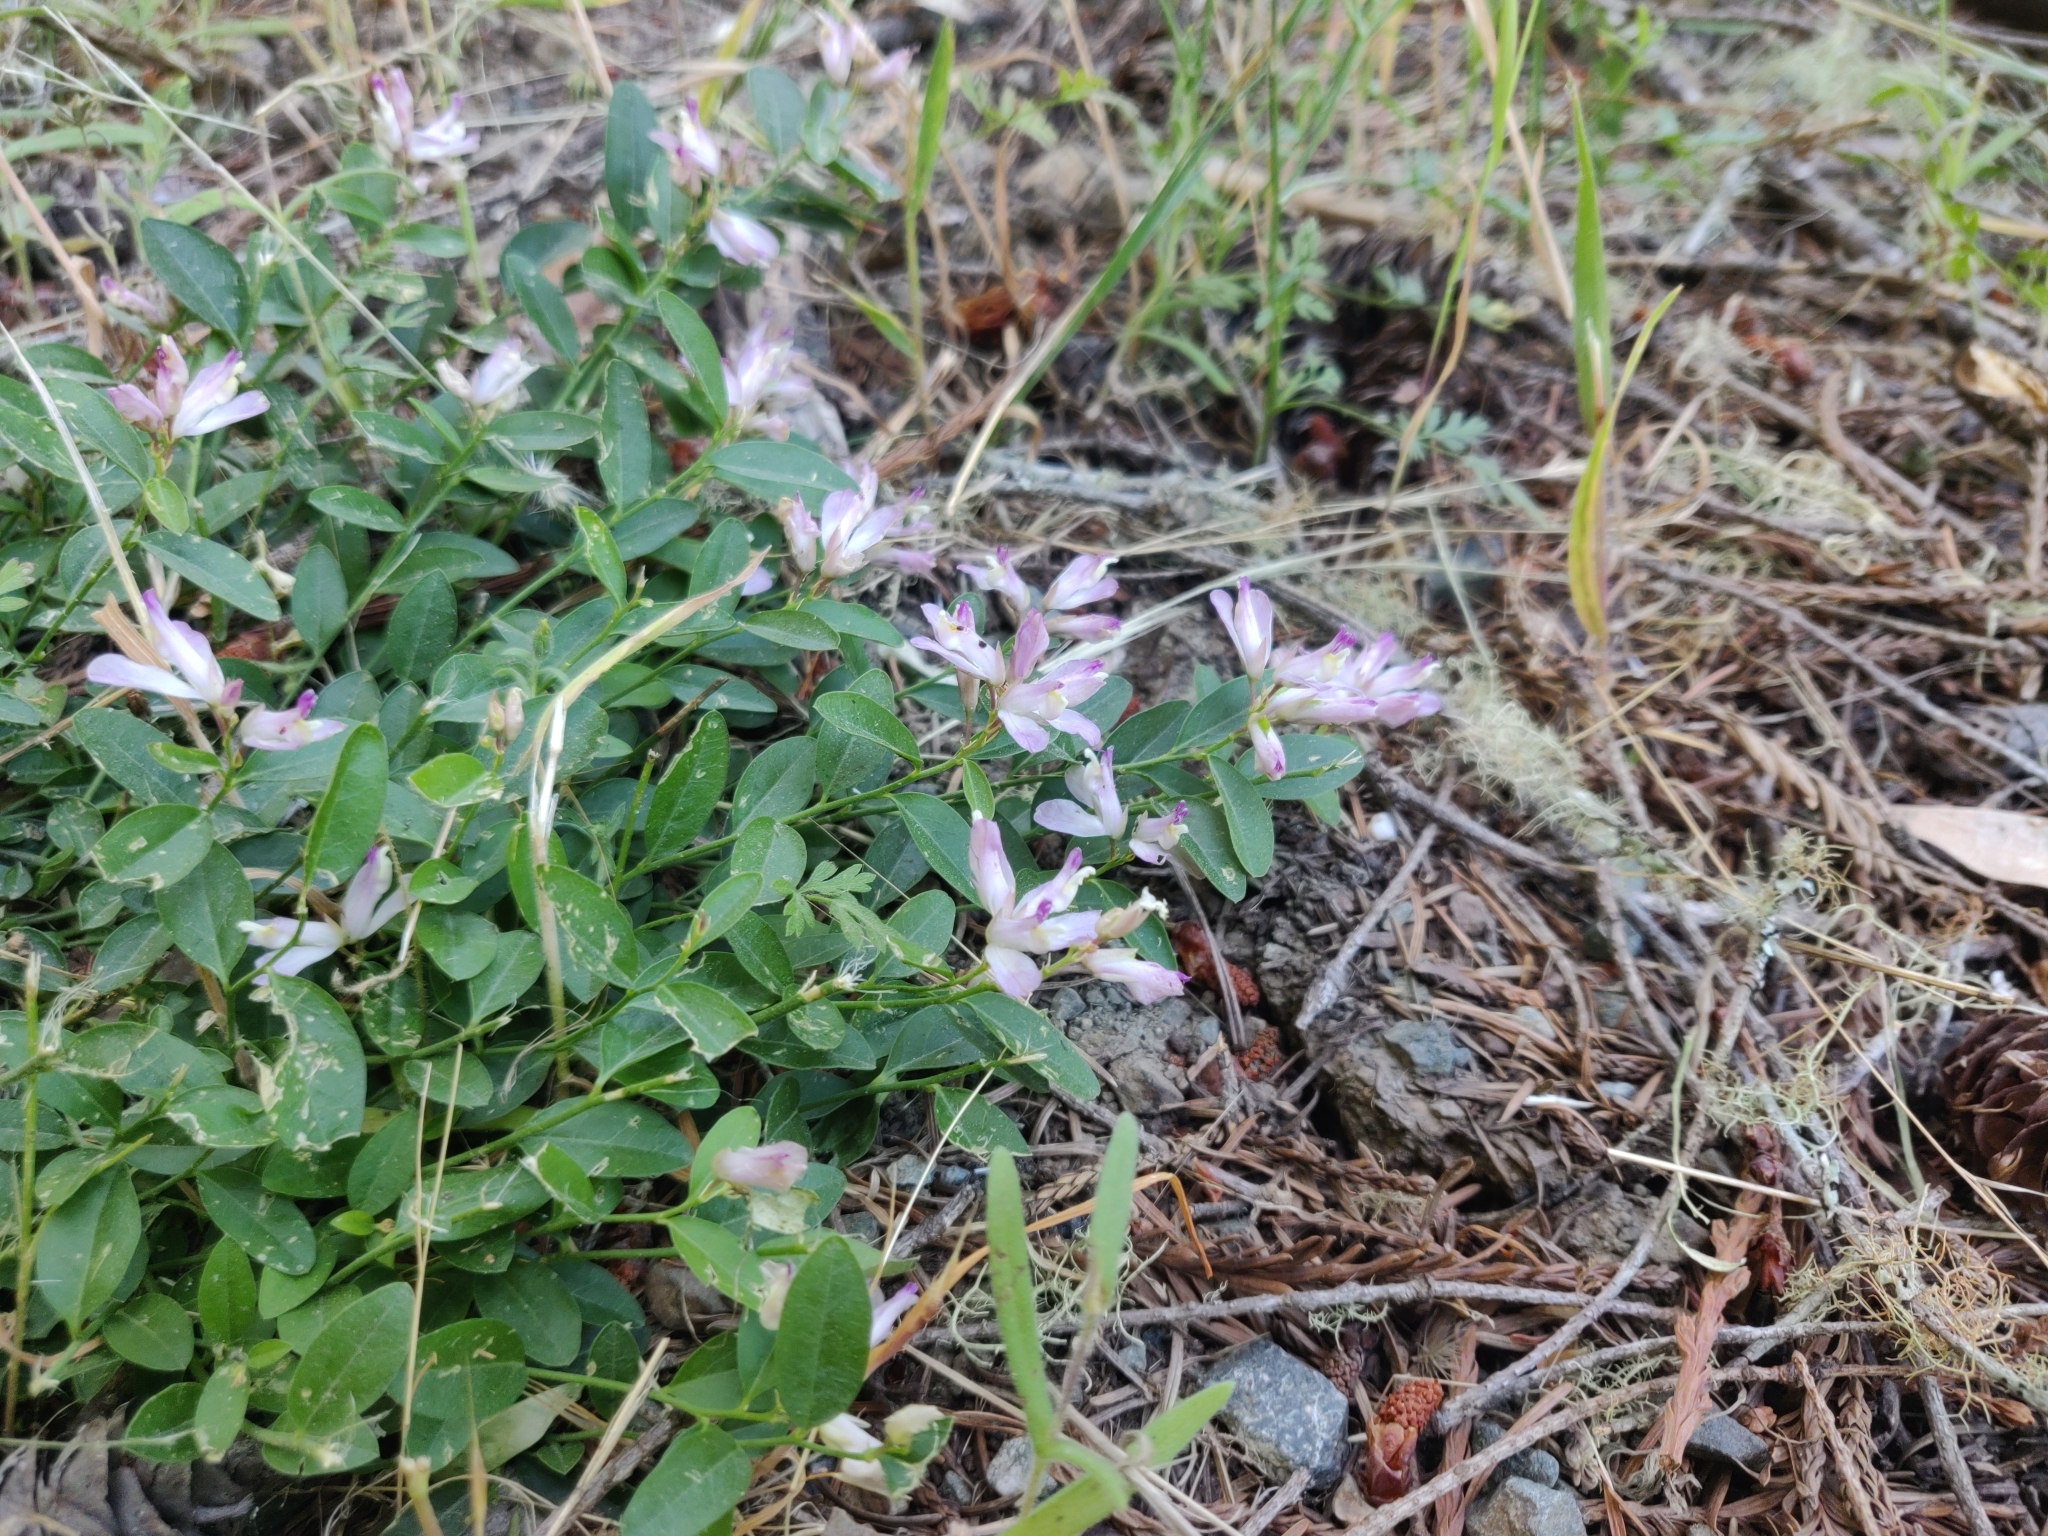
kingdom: Plantae
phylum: Tracheophyta
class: Magnoliopsida
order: Fabales
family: Polygalaceae
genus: Rhinotropis
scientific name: Rhinotropis californica
